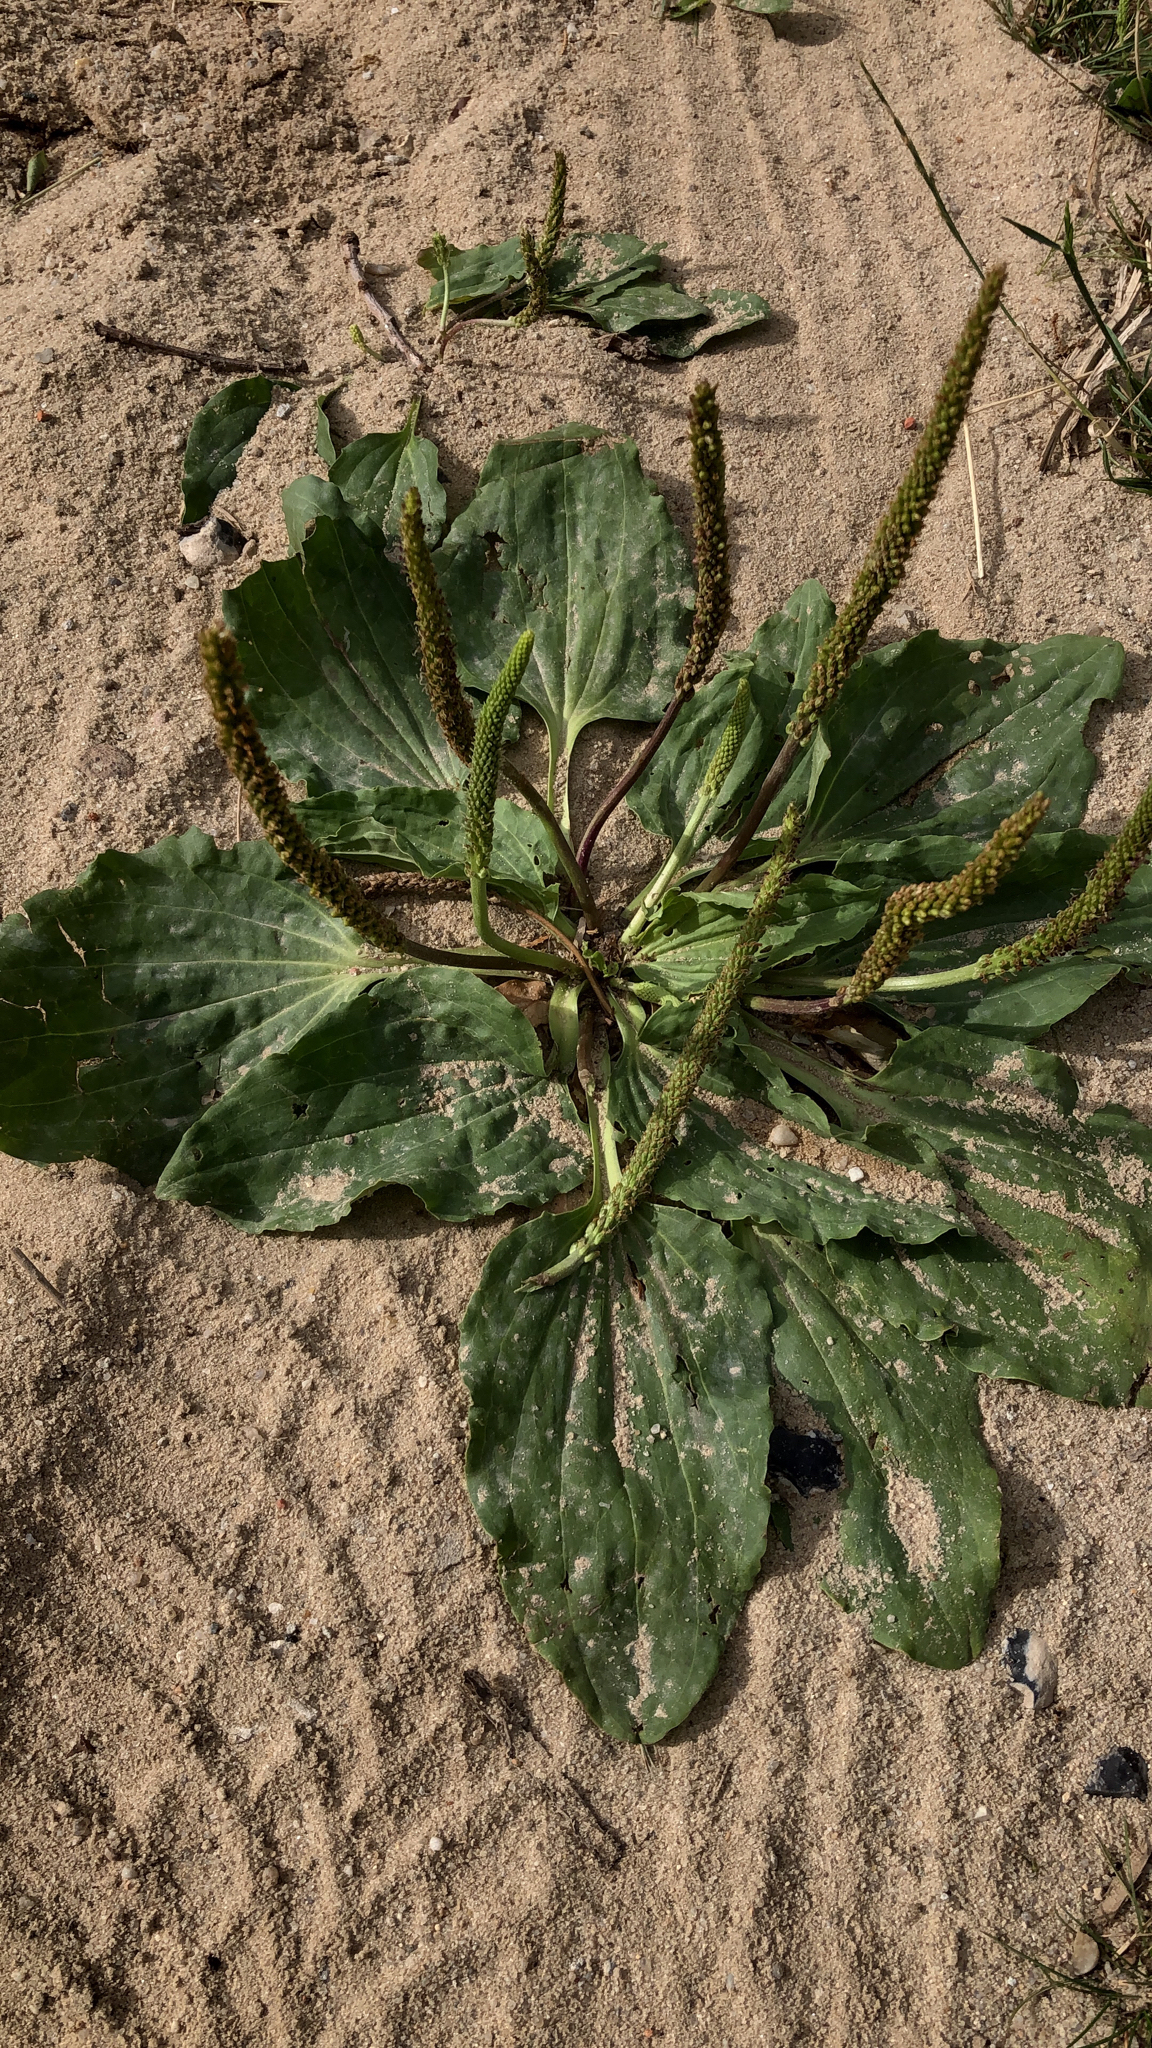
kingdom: Plantae
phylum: Tracheophyta
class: Magnoliopsida
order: Lamiales
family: Plantaginaceae
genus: Plantago
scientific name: Plantago major
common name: Common plantain
